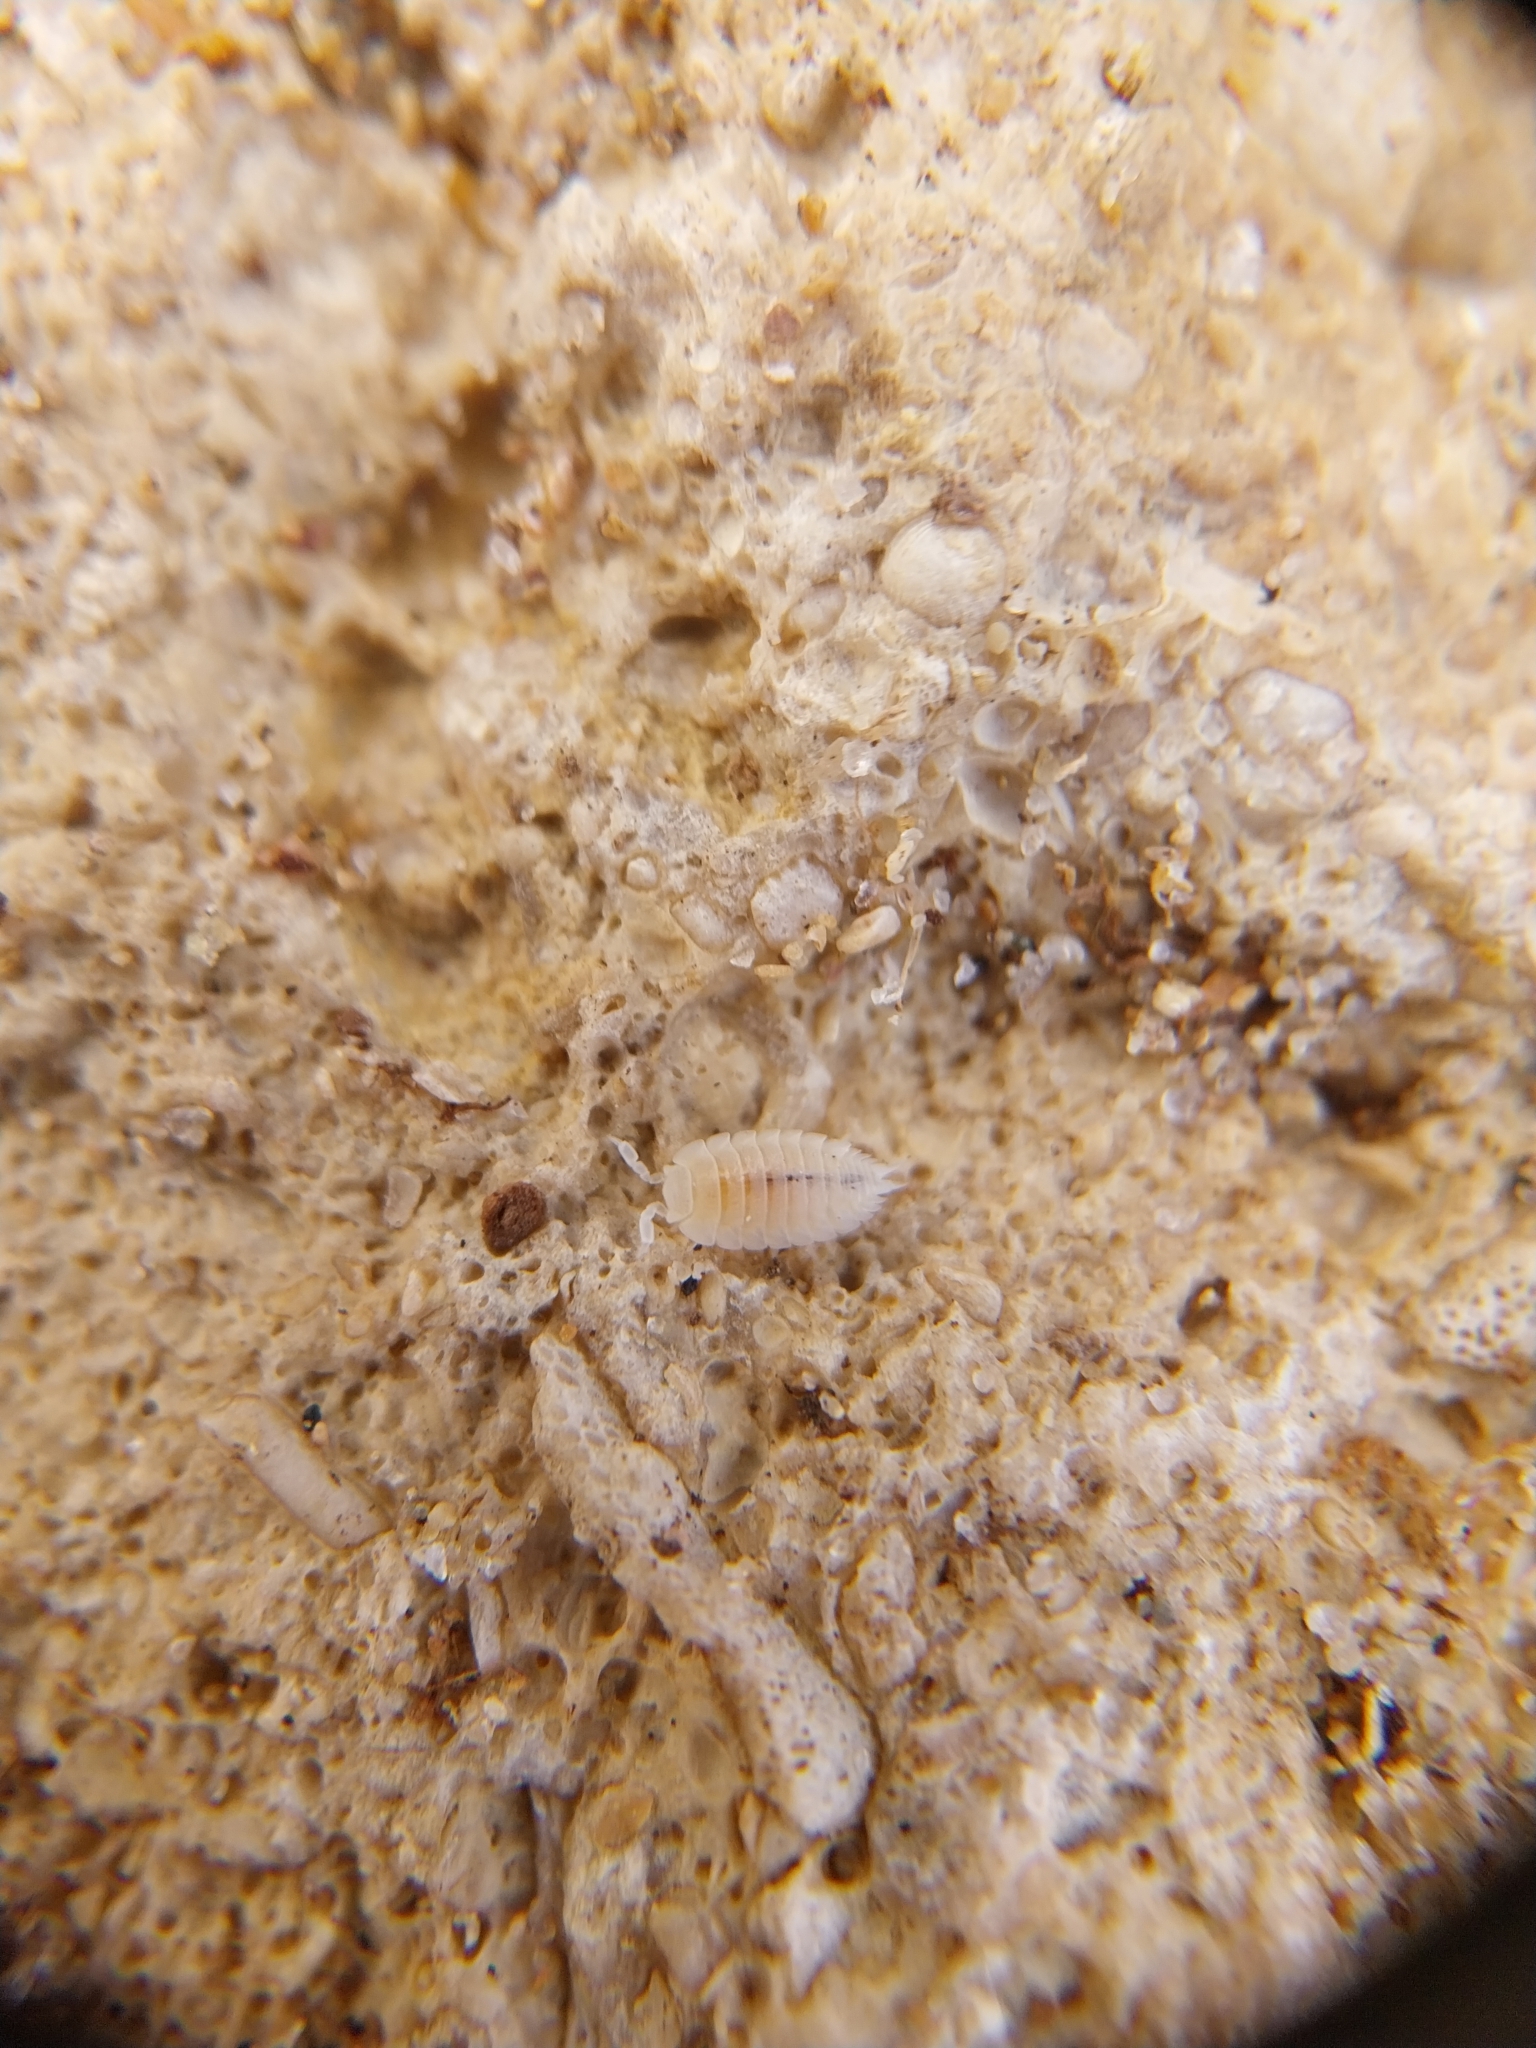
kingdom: Animalia
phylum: Arthropoda
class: Malacostraca
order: Isopoda
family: Platyarthridae
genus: Platyarthrus
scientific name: Platyarthrus hoffmannseggii
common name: Ant woodlouse
